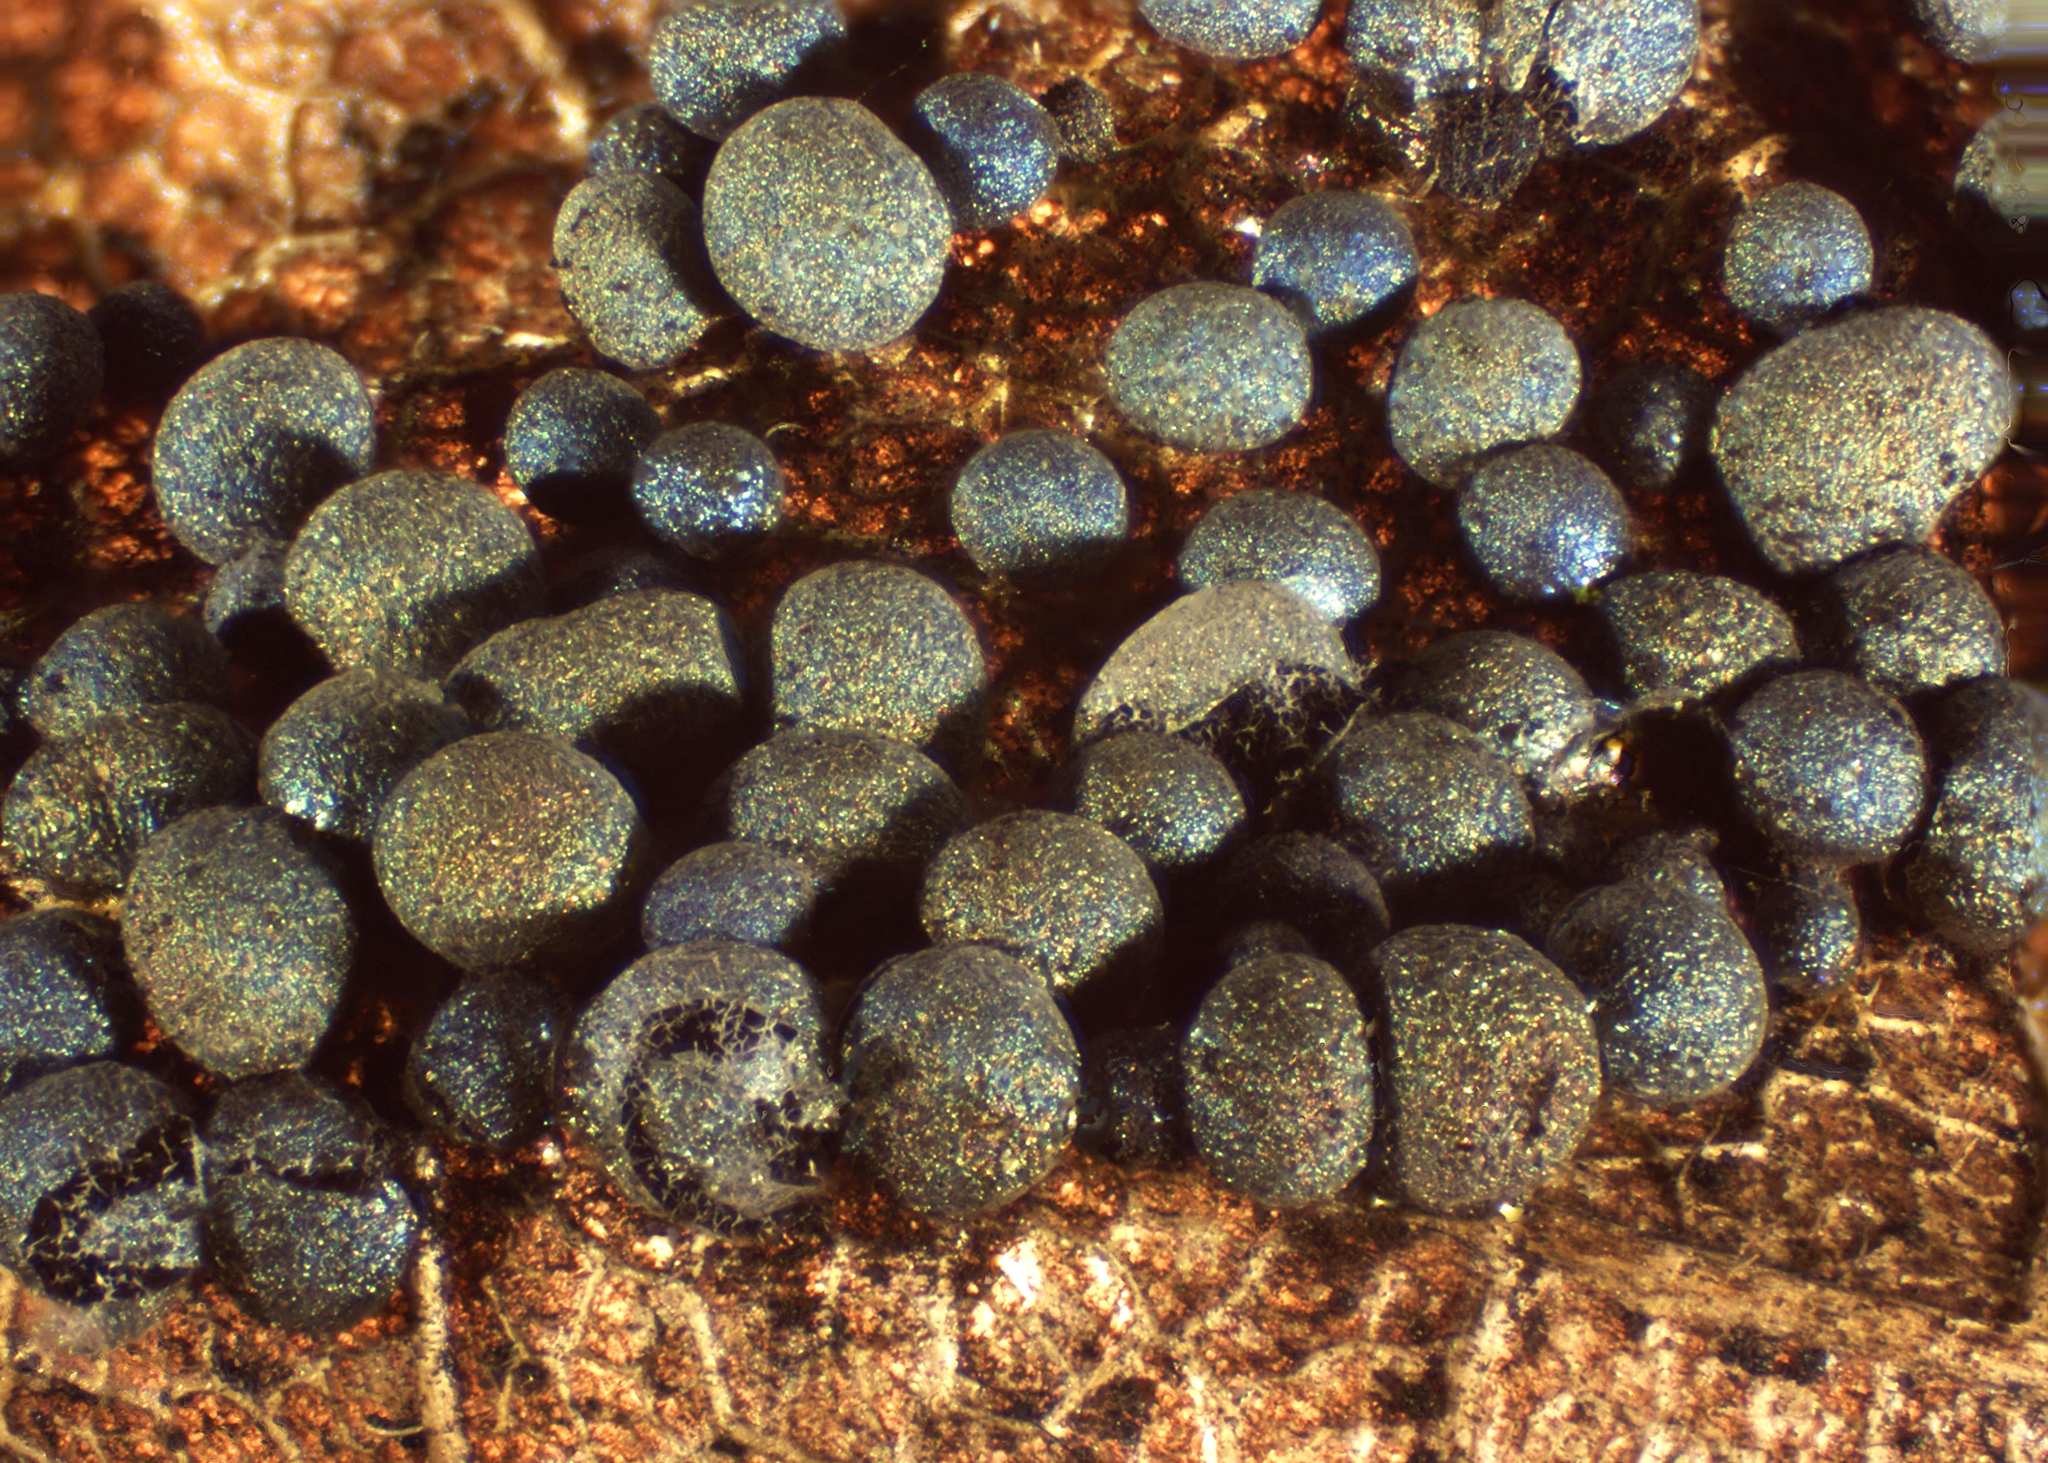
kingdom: Protozoa
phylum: Mycetozoa
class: Myxomycetes
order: Physarales
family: Physaraceae
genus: Badhamia
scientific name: Badhamia dubia
